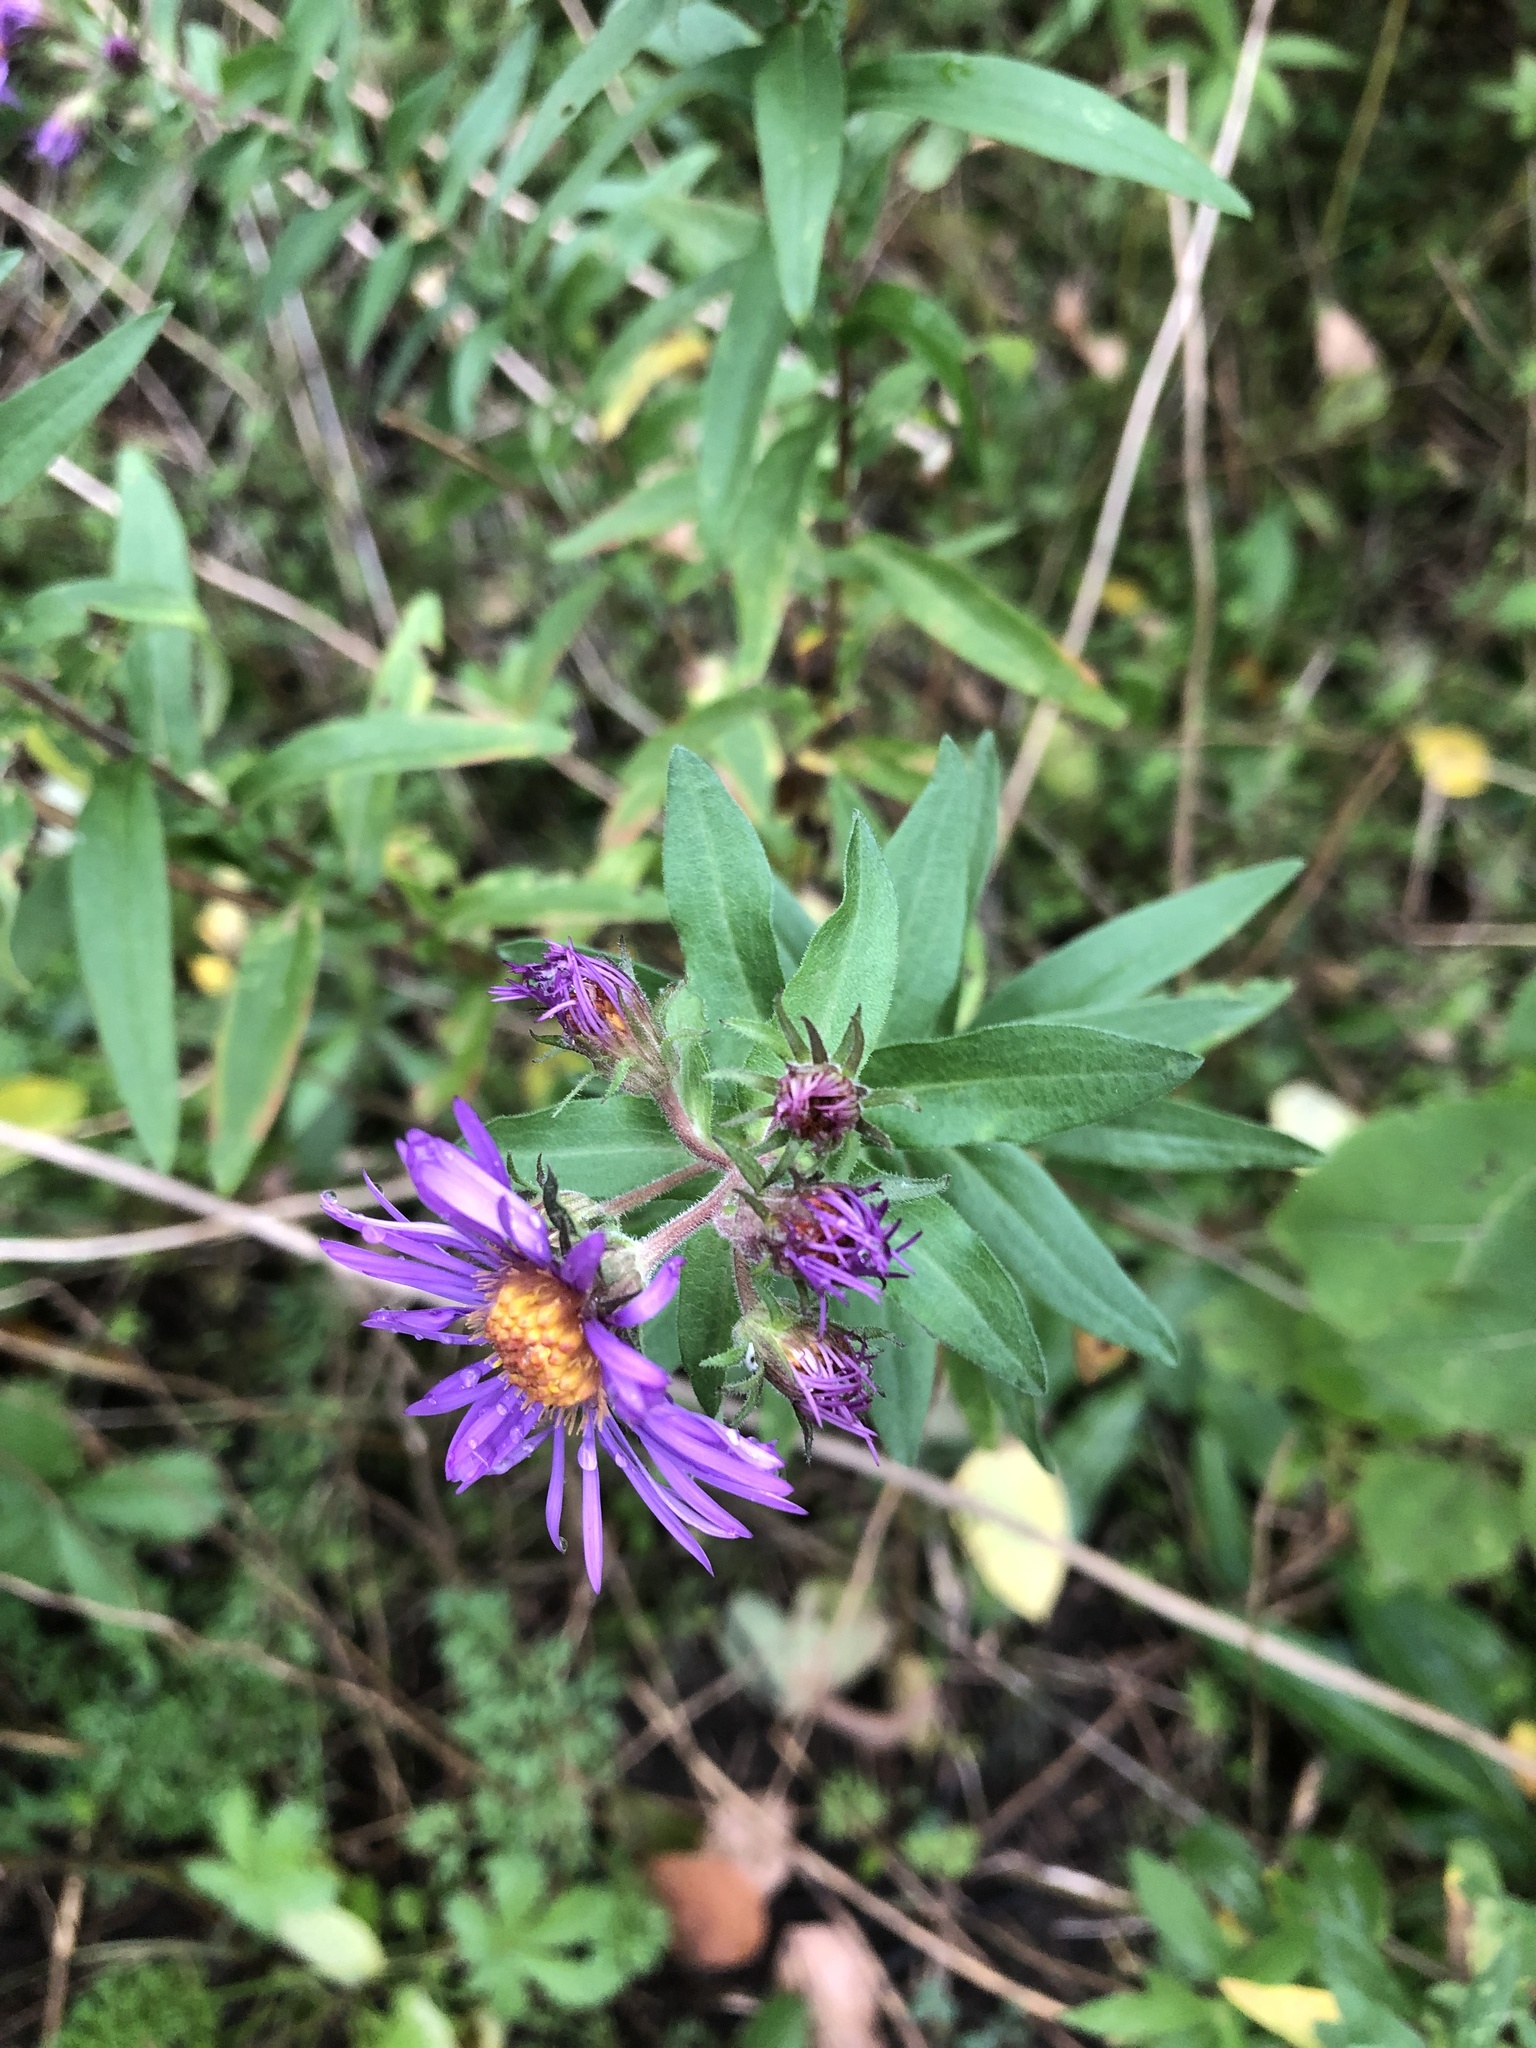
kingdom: Plantae
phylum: Tracheophyta
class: Magnoliopsida
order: Asterales
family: Asteraceae
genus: Symphyotrichum
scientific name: Symphyotrichum novae-angliae
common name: Michaelmas daisy
